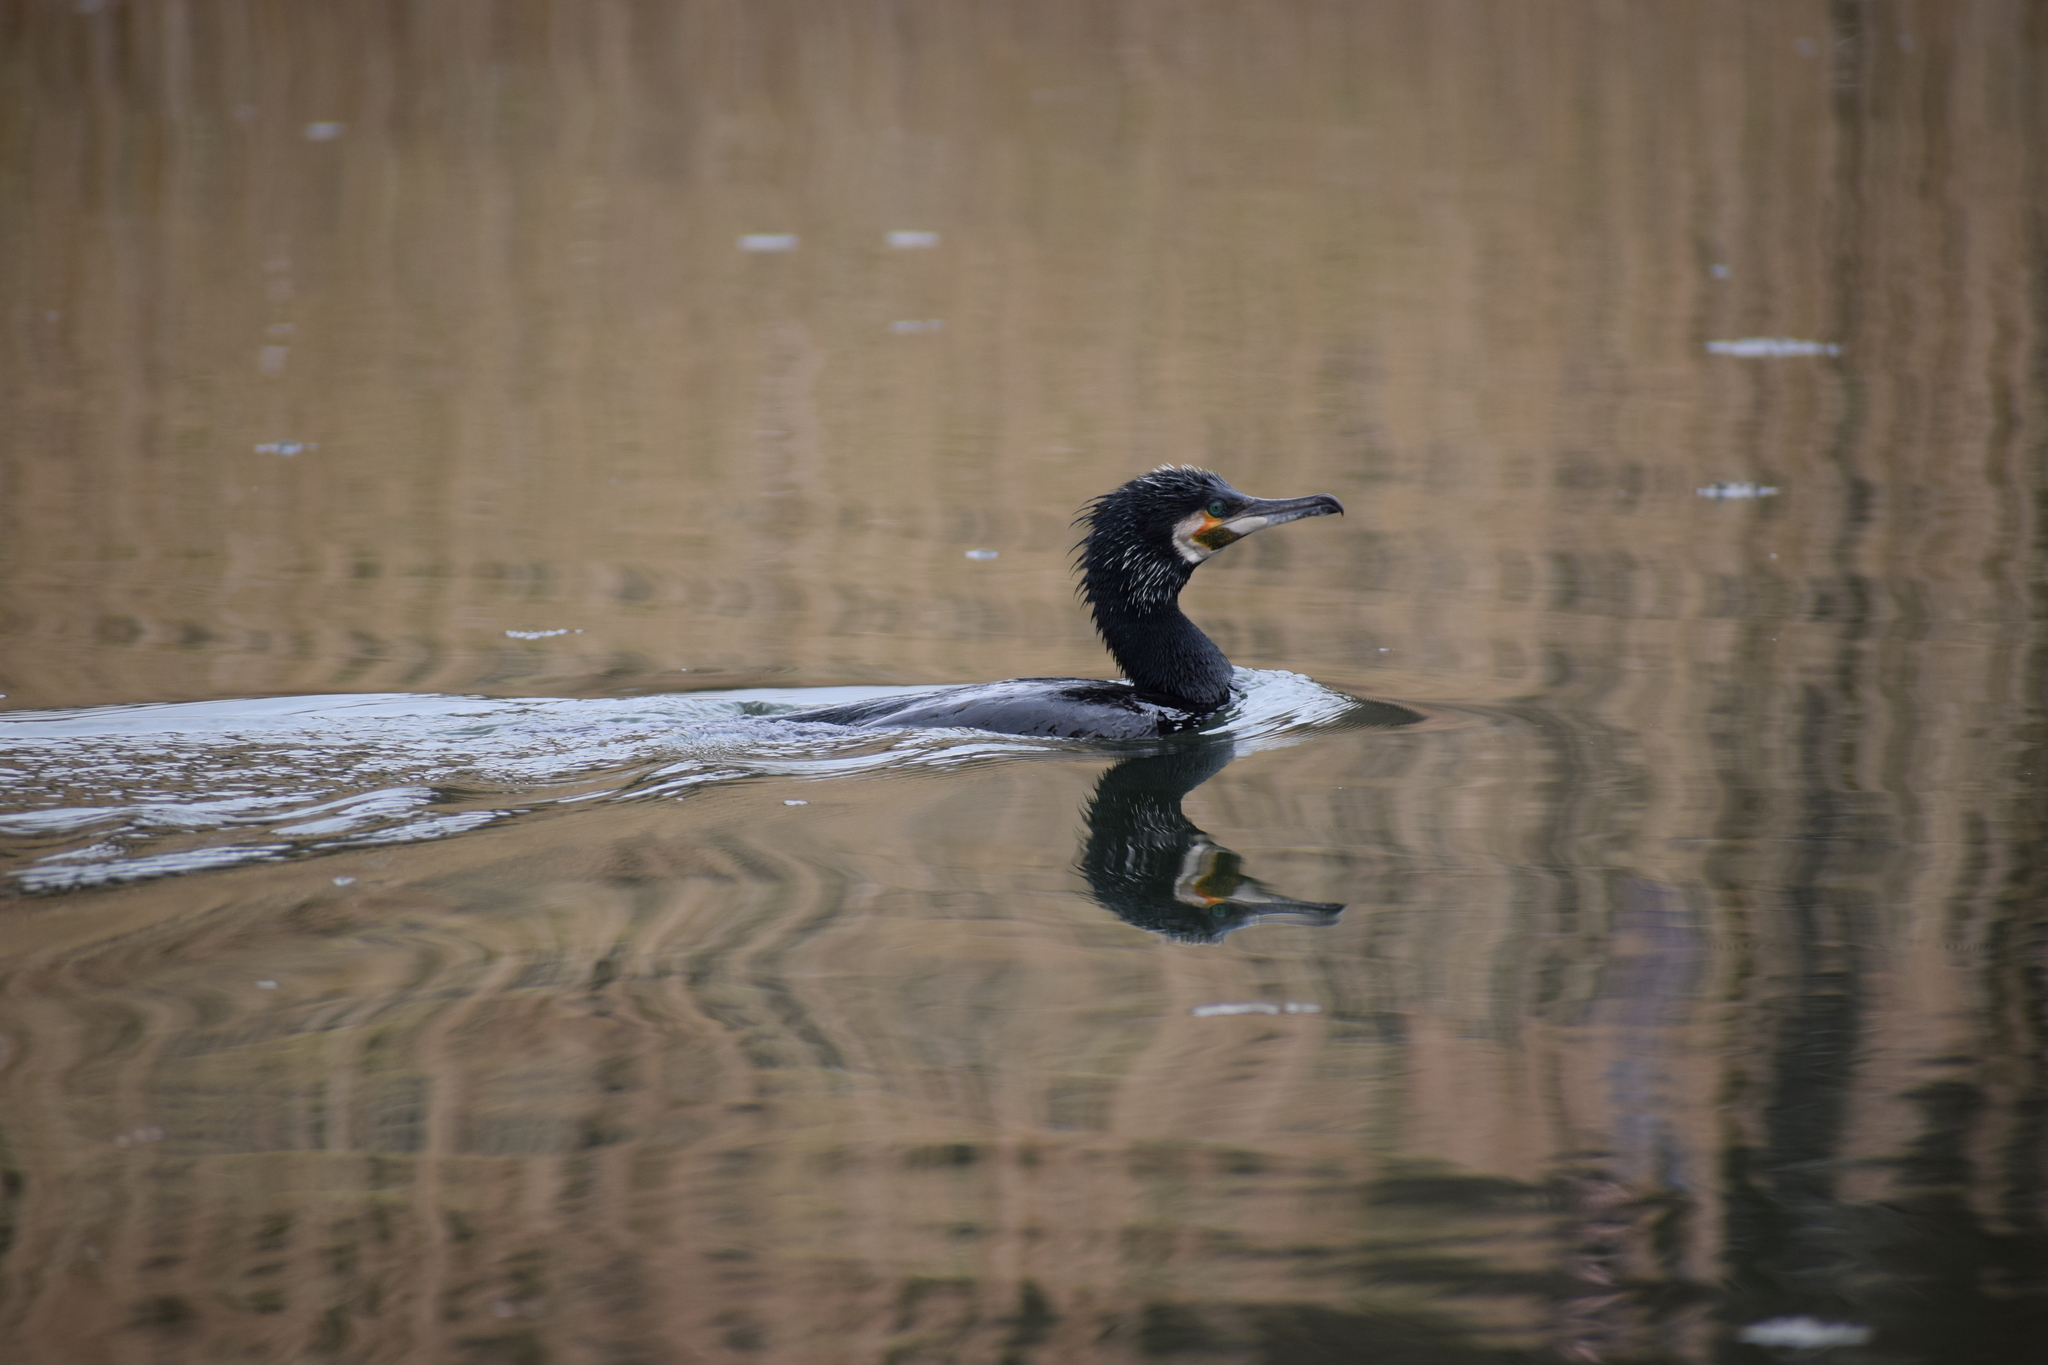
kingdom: Animalia
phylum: Chordata
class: Aves
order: Suliformes
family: Phalacrocoracidae
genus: Phalacrocorax
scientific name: Phalacrocorax carbo
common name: Great cormorant
